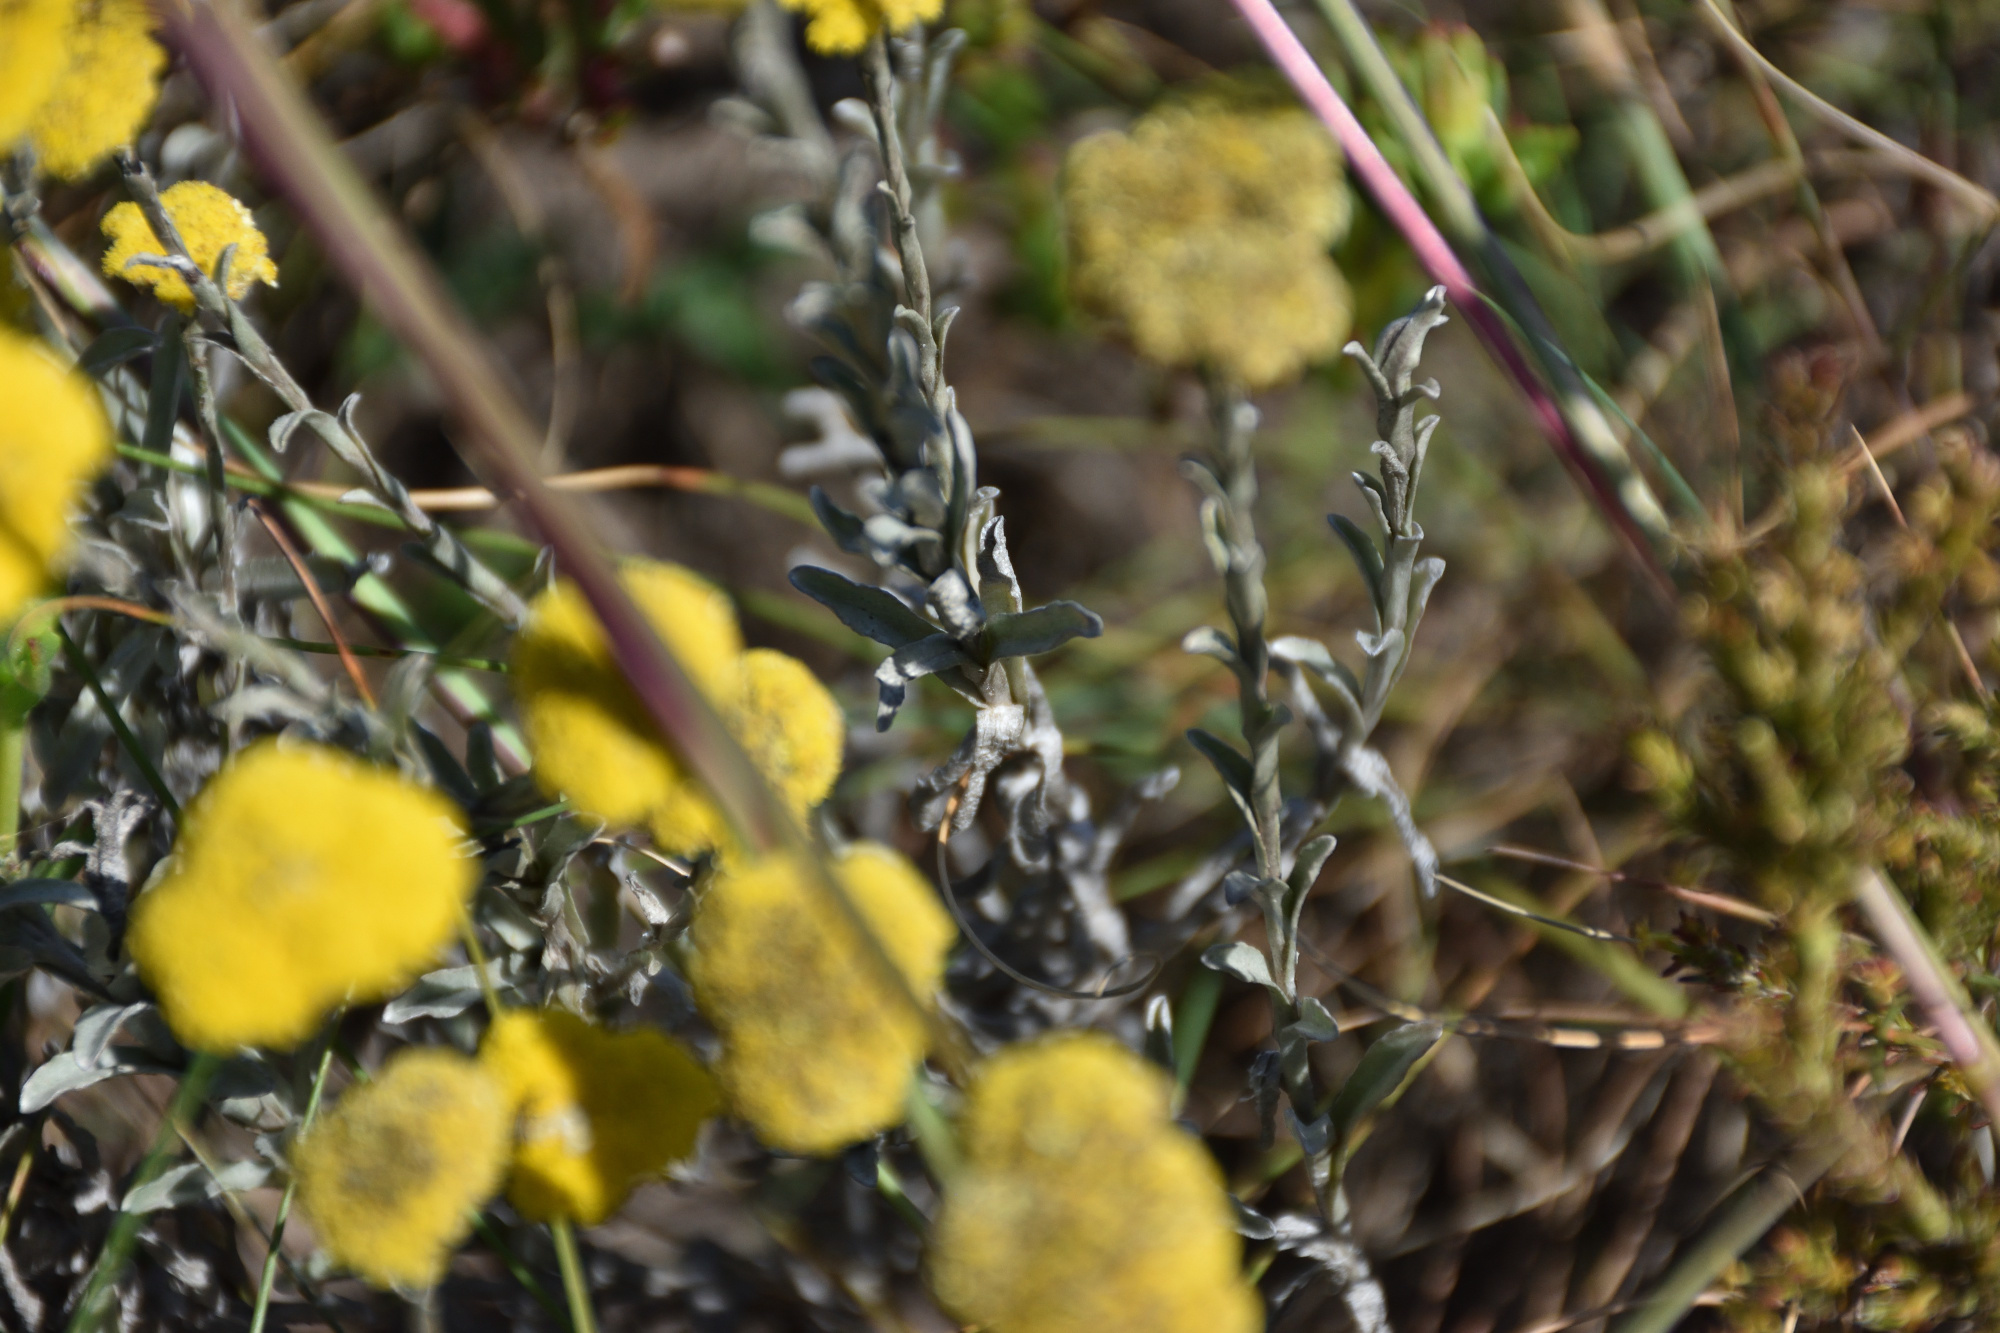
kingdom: Plantae
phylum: Tracheophyta
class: Magnoliopsida
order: Asterales
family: Asteraceae
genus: Helichrysum
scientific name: Helichrysum albanense
